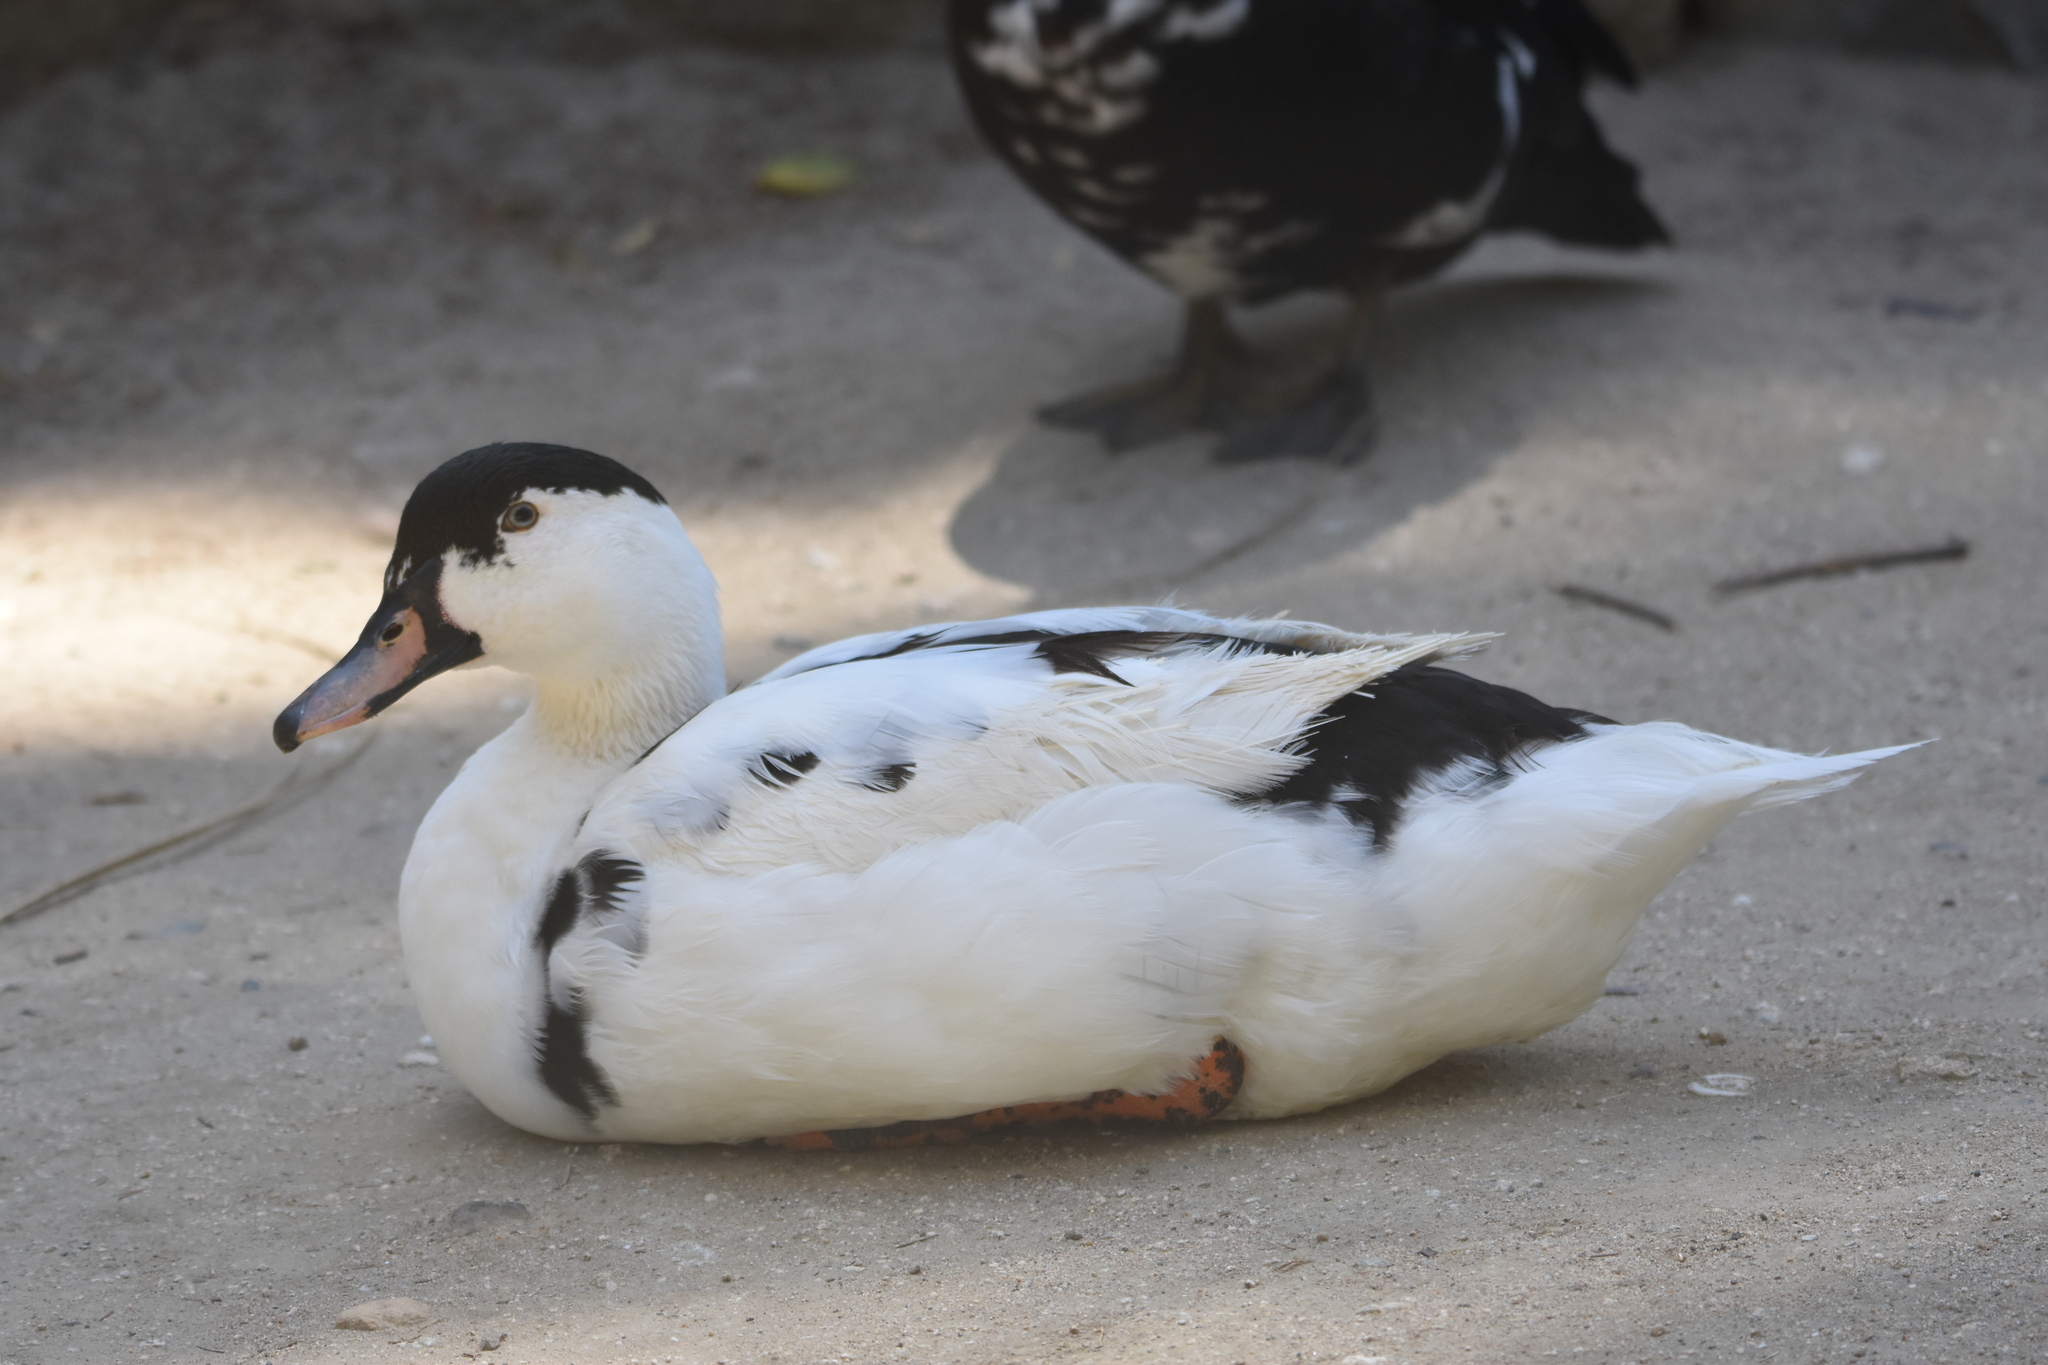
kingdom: Animalia
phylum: Chordata
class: Aves
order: Anseriformes
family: Anatidae
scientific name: Anatidae
